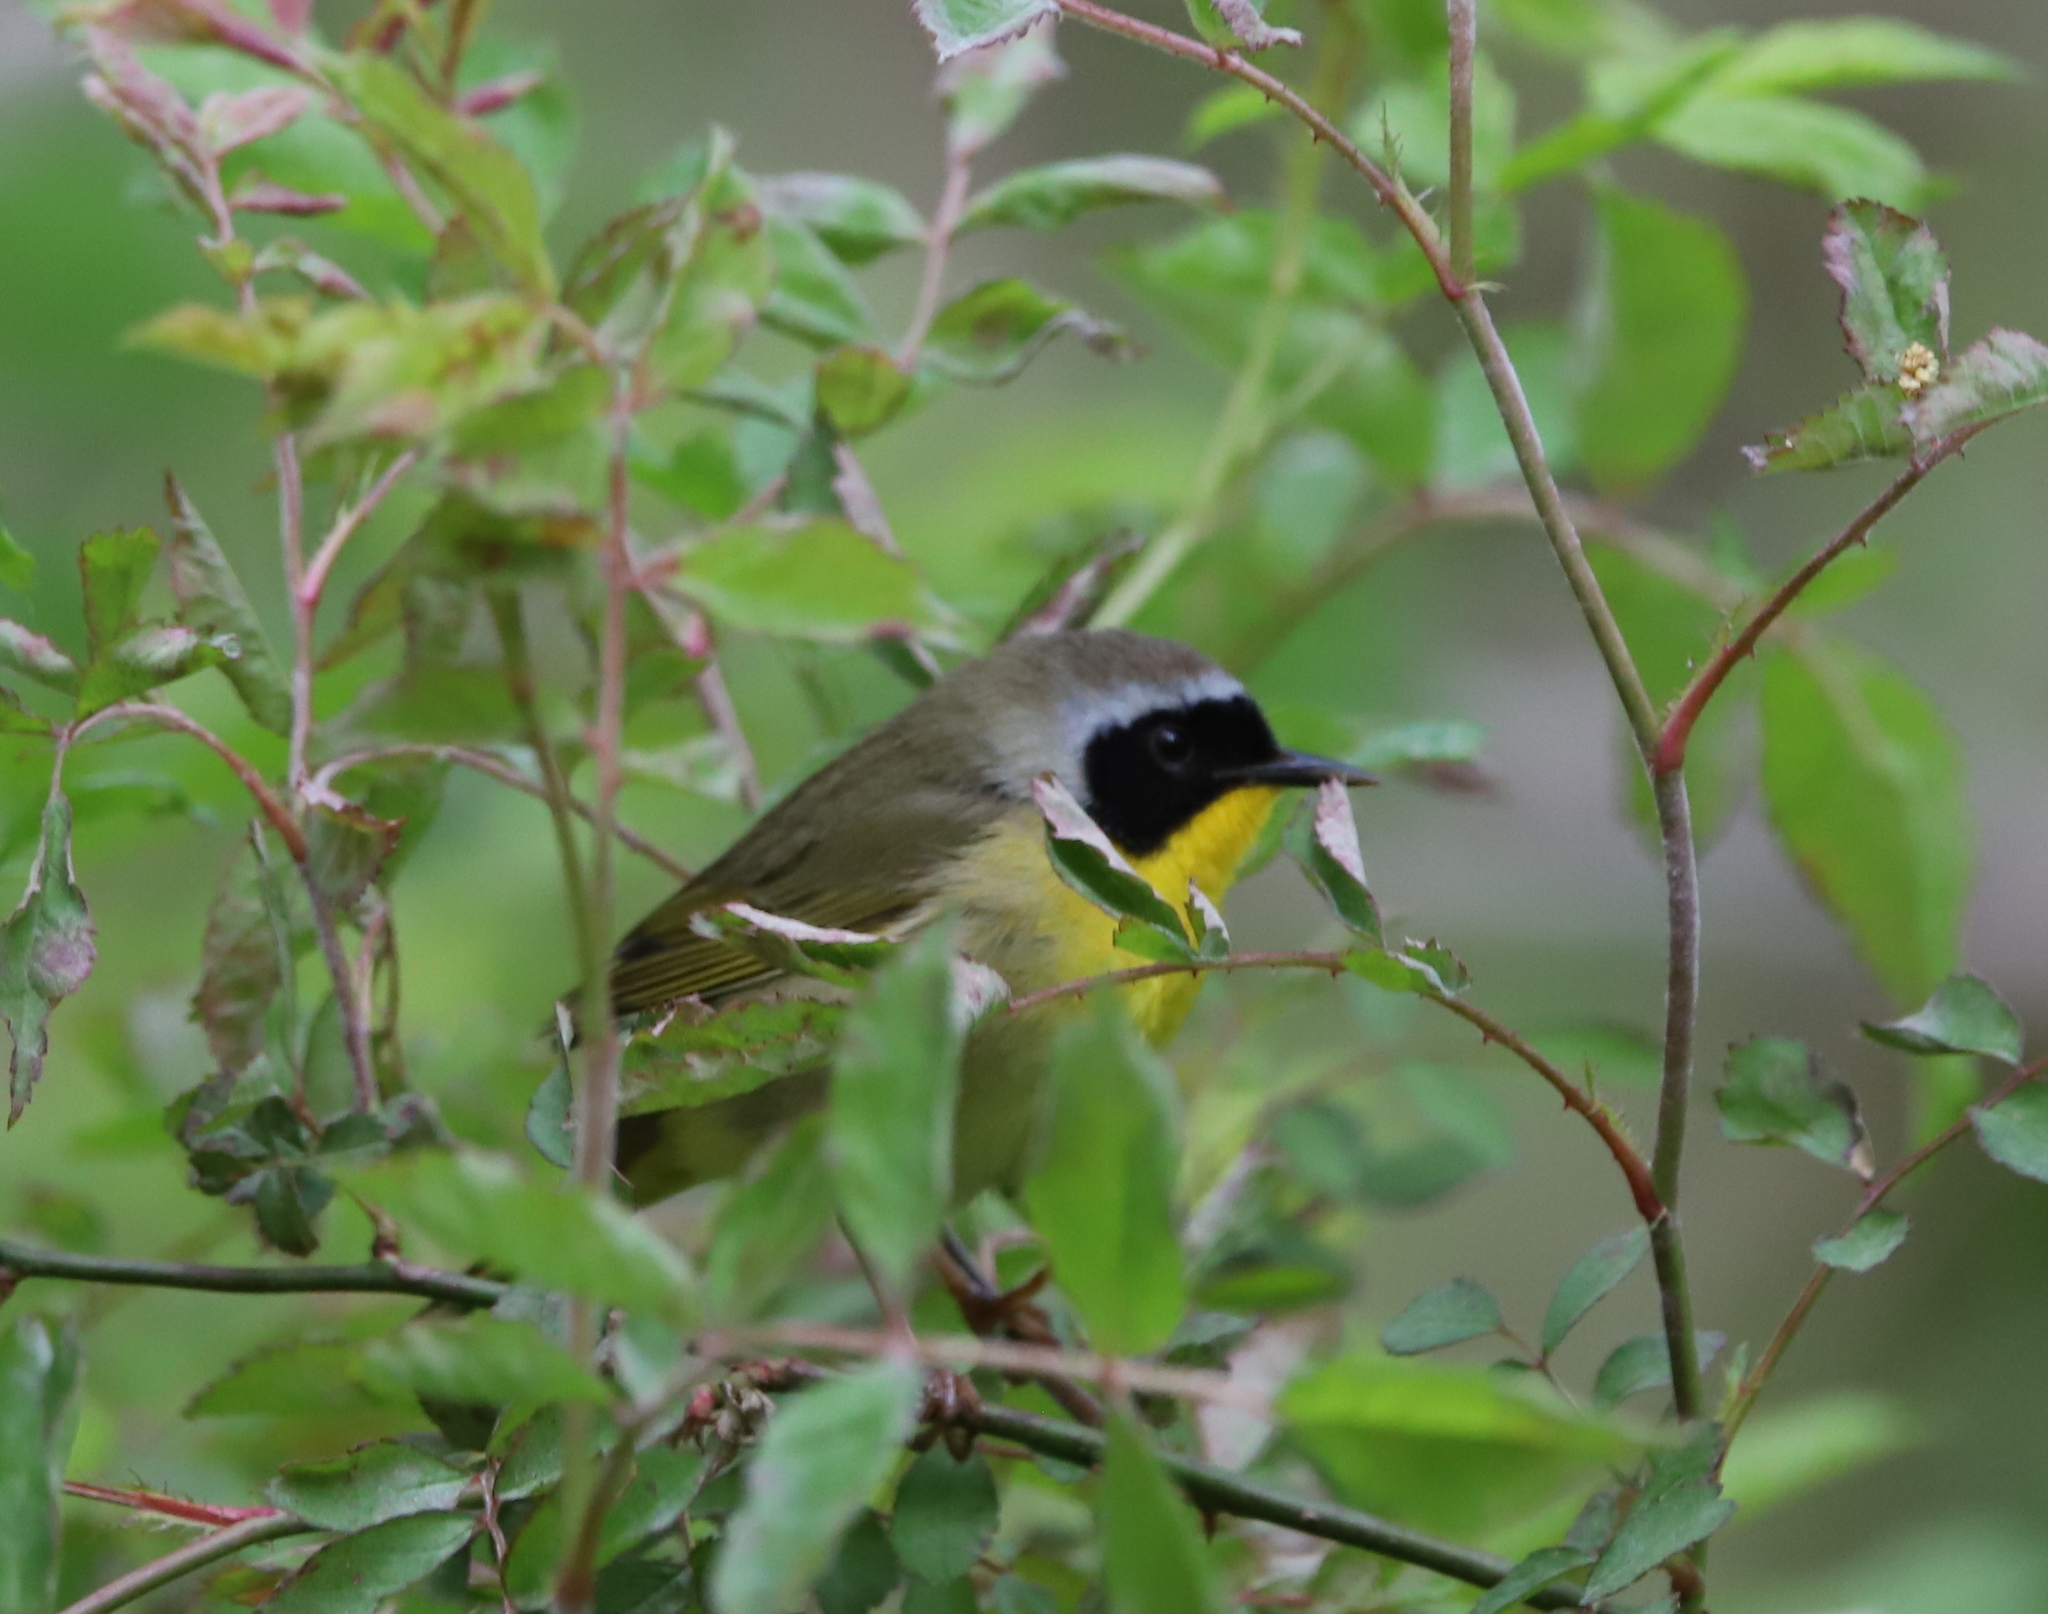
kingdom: Animalia
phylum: Chordata
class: Aves
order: Passeriformes
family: Parulidae
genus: Geothlypis
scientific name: Geothlypis trichas
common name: Common yellowthroat
